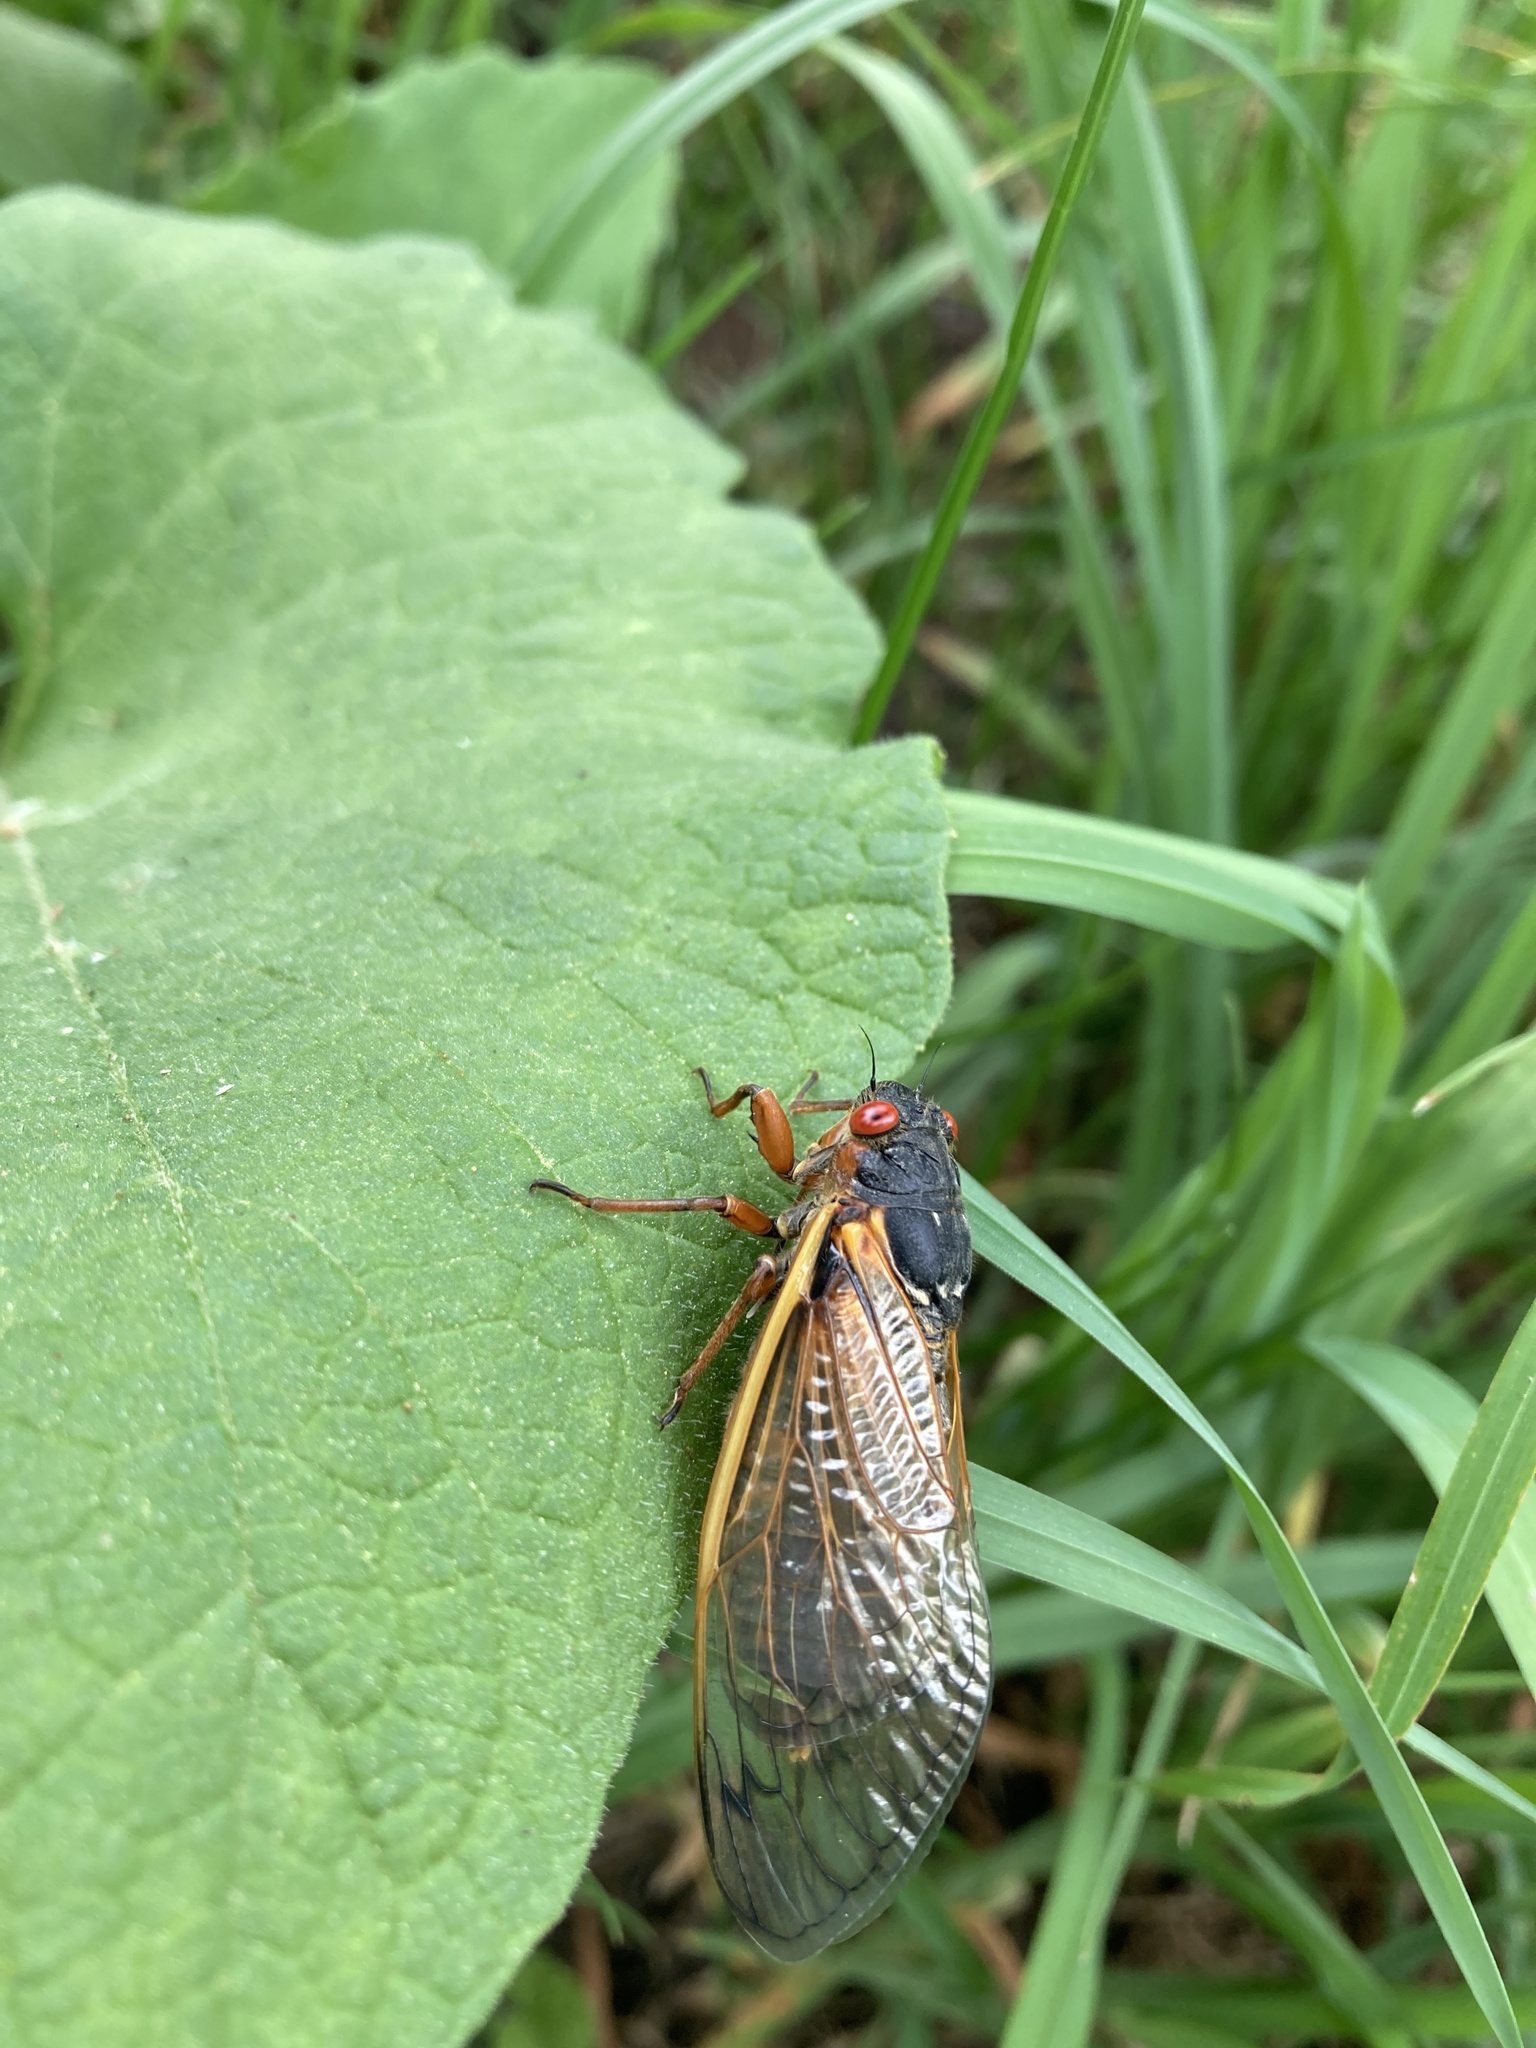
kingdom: Animalia
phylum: Arthropoda
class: Insecta
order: Hemiptera
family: Cicadidae
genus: Magicicada
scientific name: Magicicada septendecim
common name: Periodical cicada
